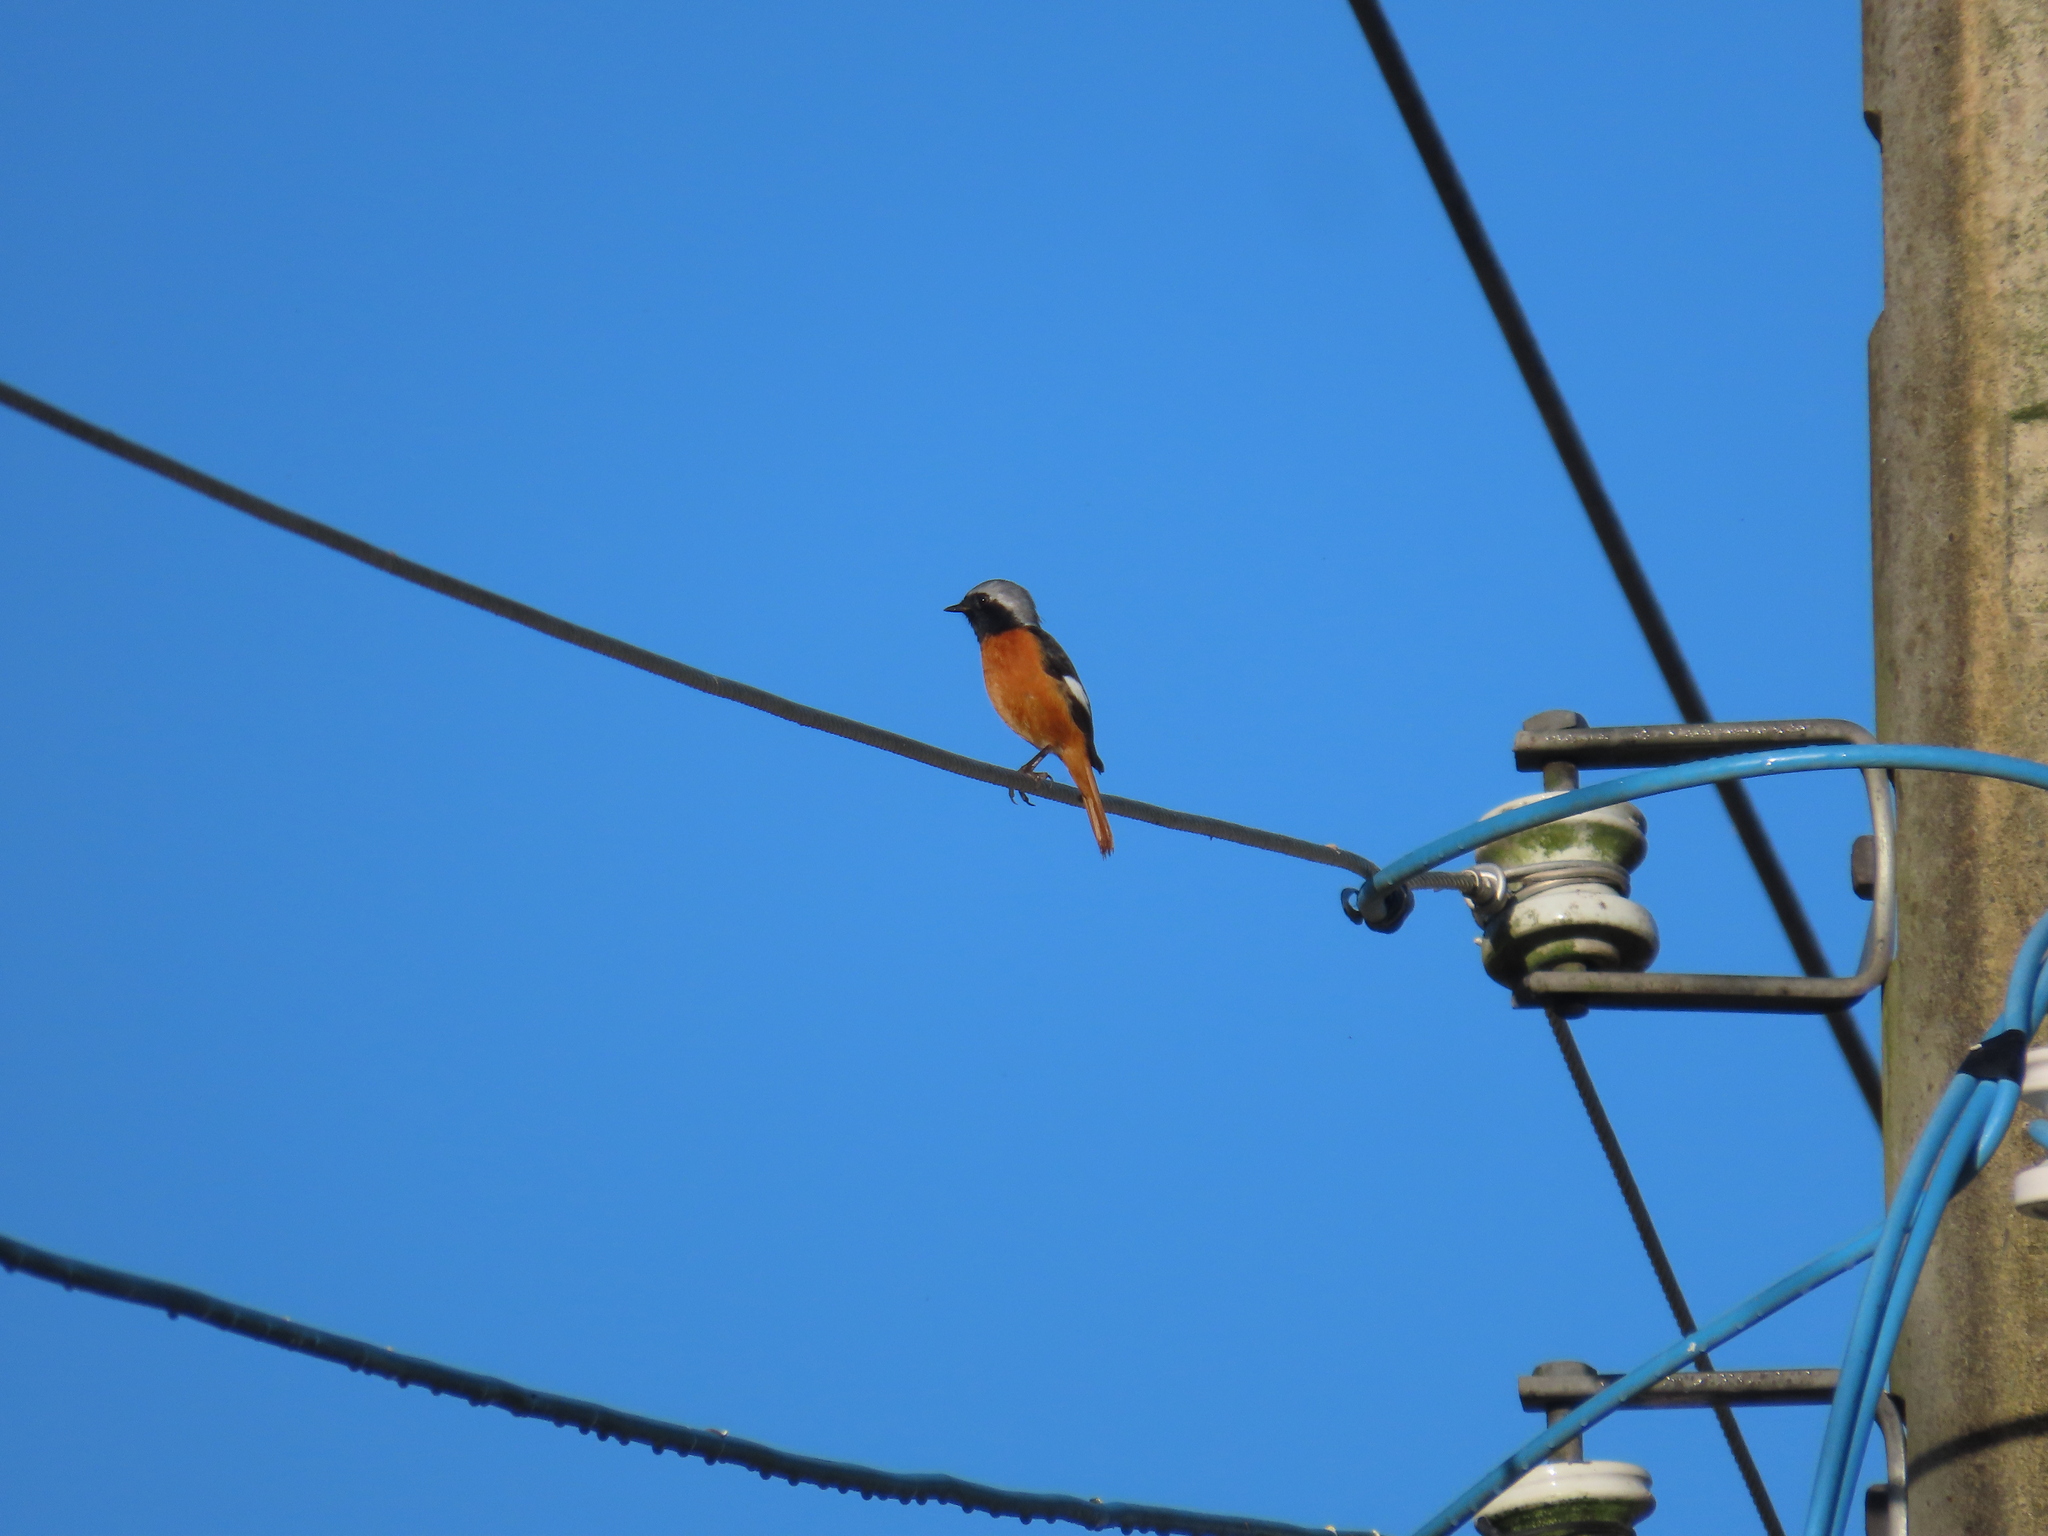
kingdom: Animalia
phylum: Chordata
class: Aves
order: Passeriformes
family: Muscicapidae
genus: Phoenicurus
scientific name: Phoenicurus auroreus
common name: Daurian redstart
